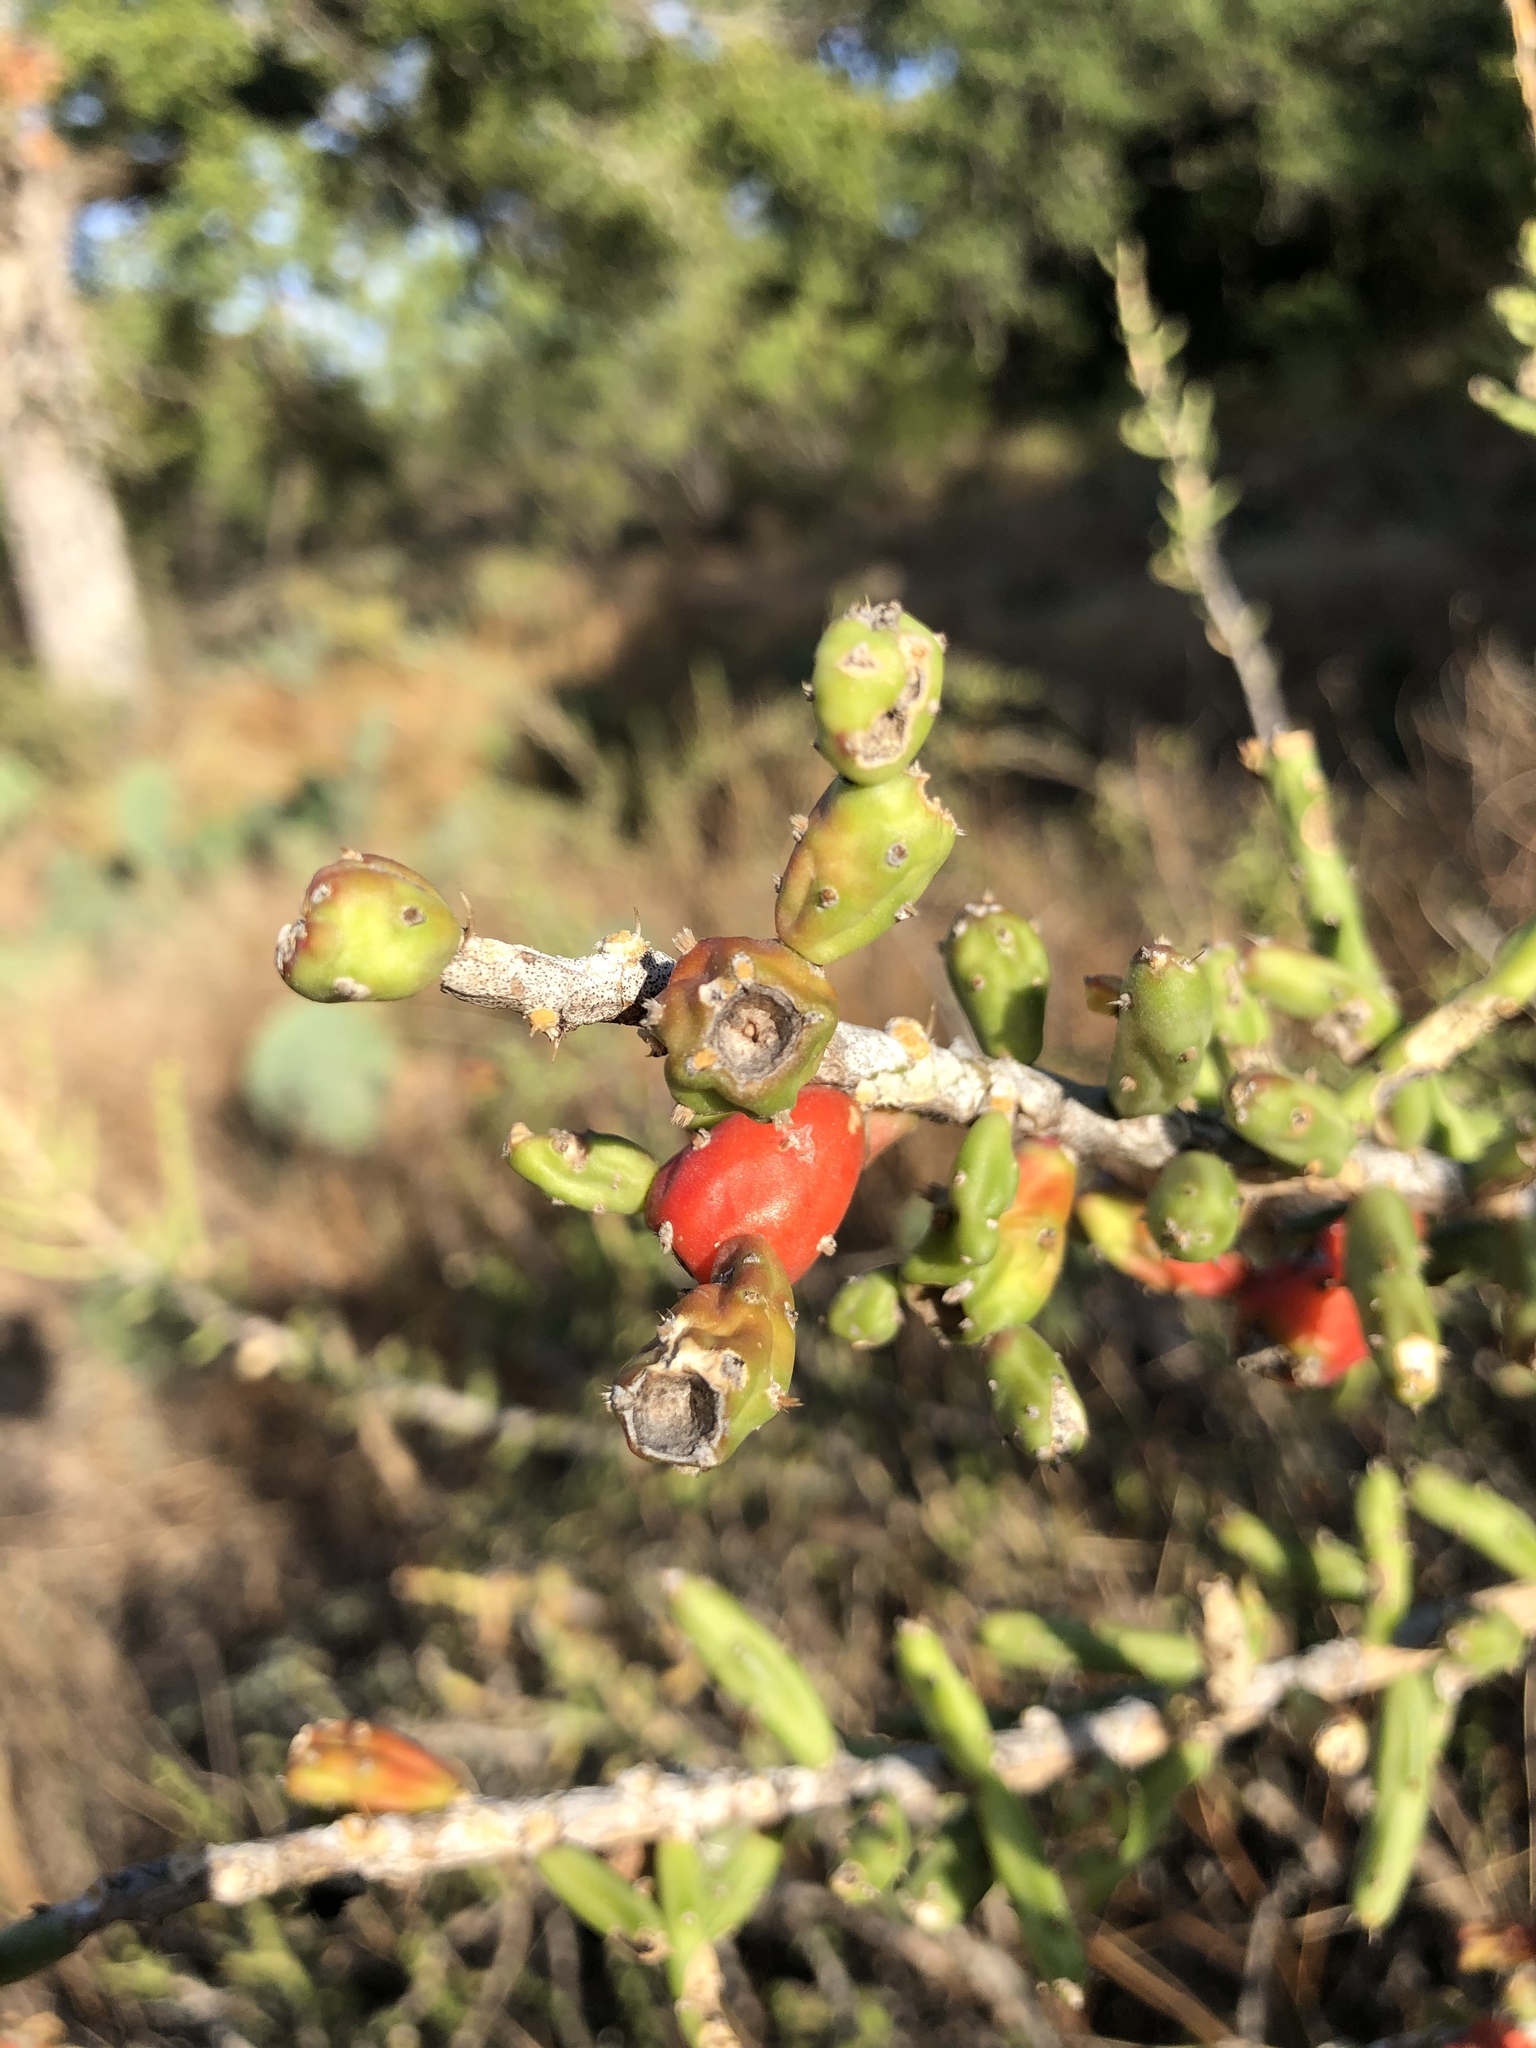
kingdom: Plantae
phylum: Tracheophyta
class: Magnoliopsida
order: Caryophyllales
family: Cactaceae
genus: Cylindropuntia
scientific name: Cylindropuntia leptocaulis
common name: Christmas cactus
